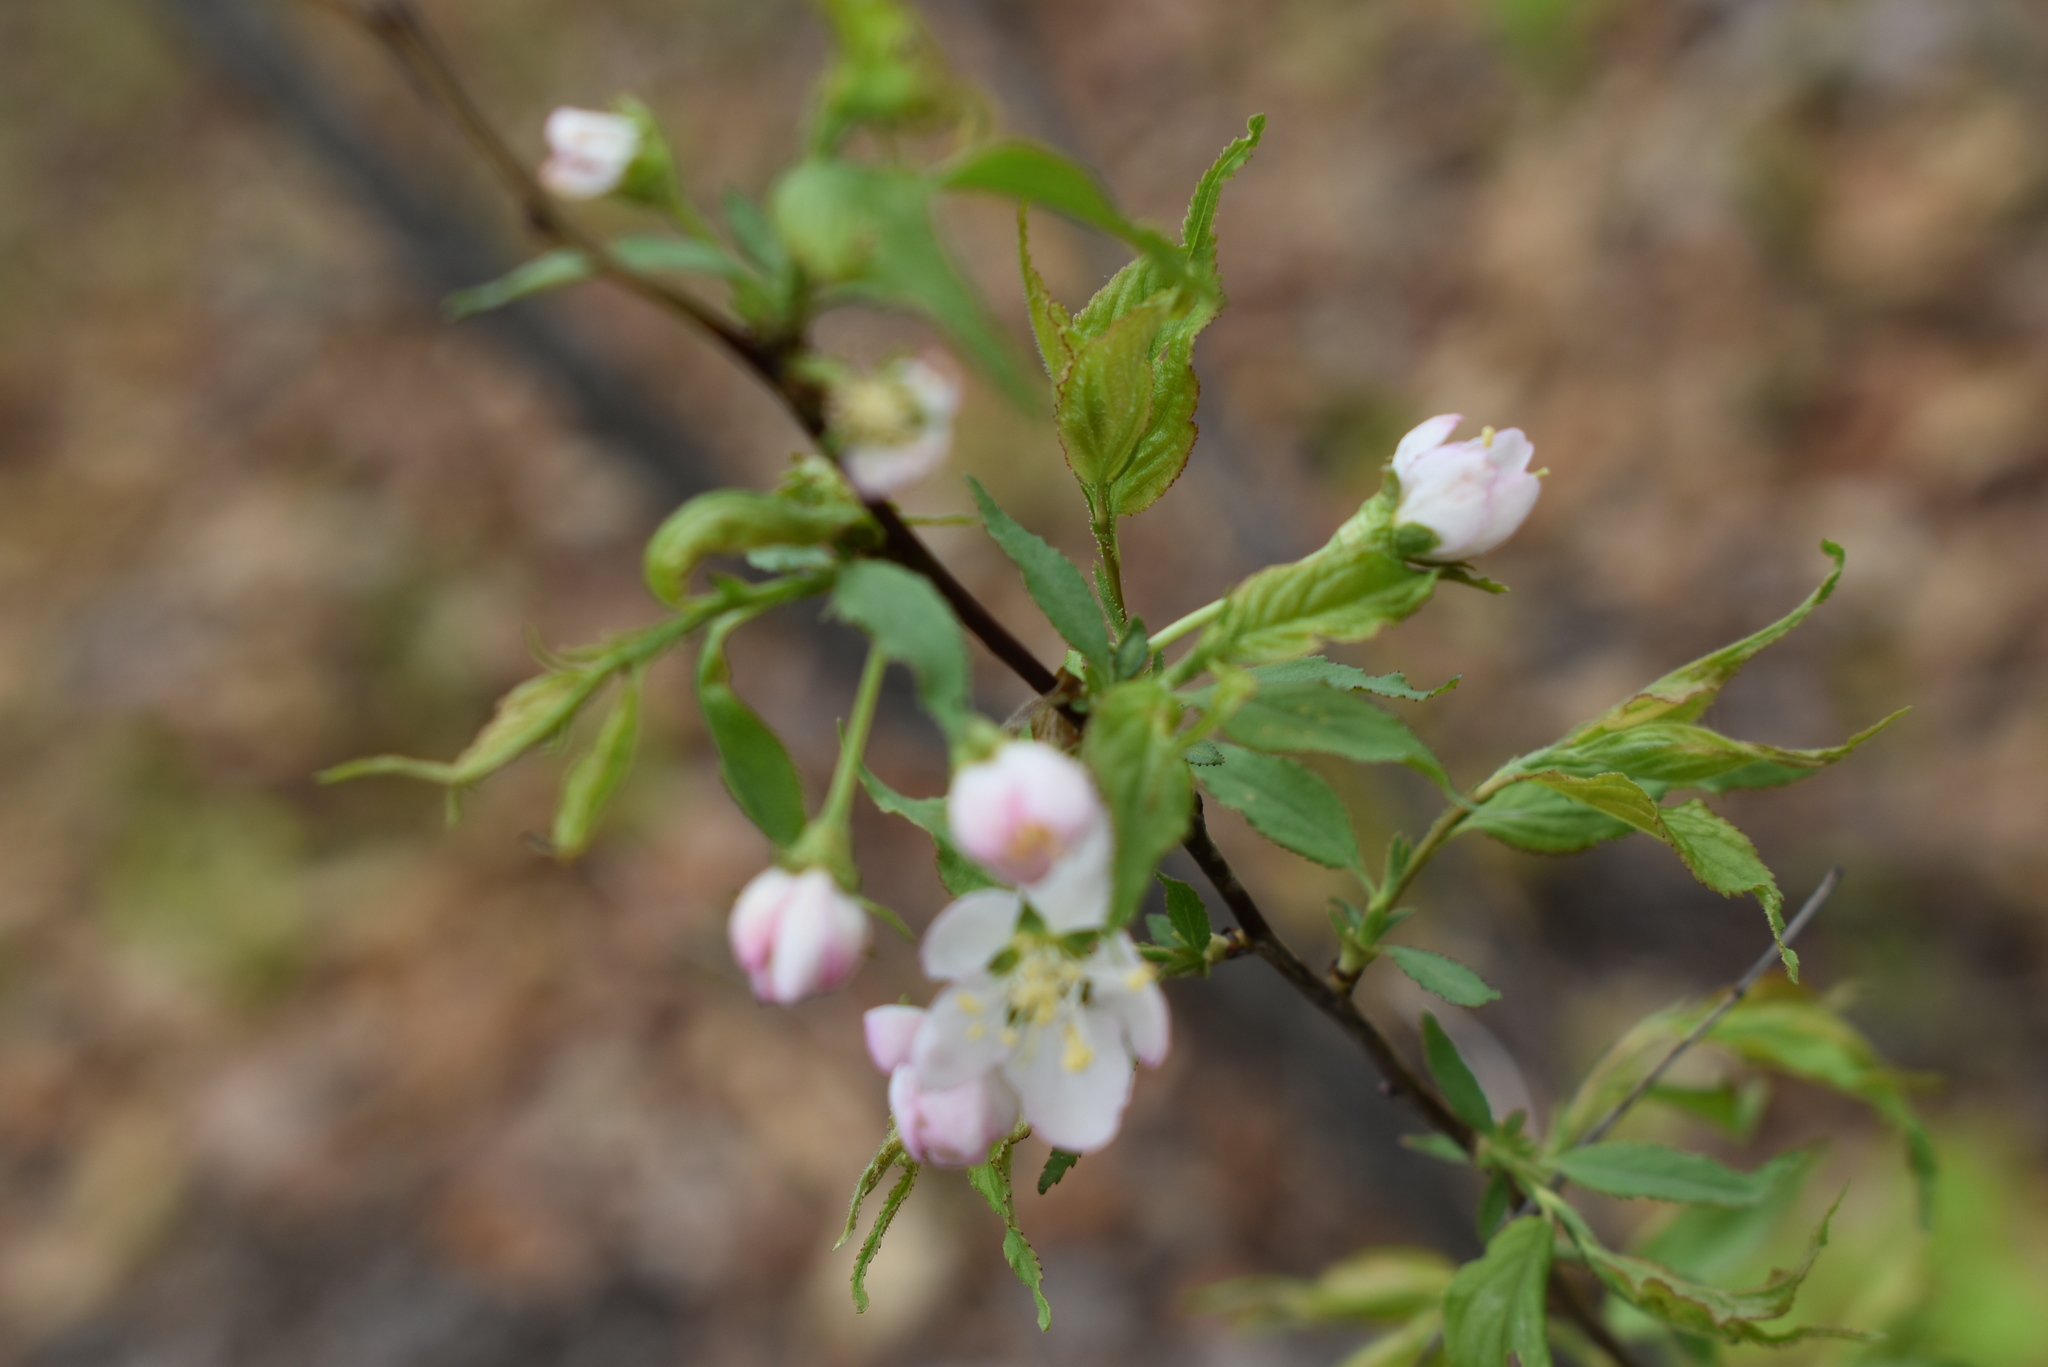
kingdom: Plantae
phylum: Tracheophyta
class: Magnoliopsida
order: Rosales
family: Rosaceae
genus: Prunus
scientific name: Prunus glandulosa
